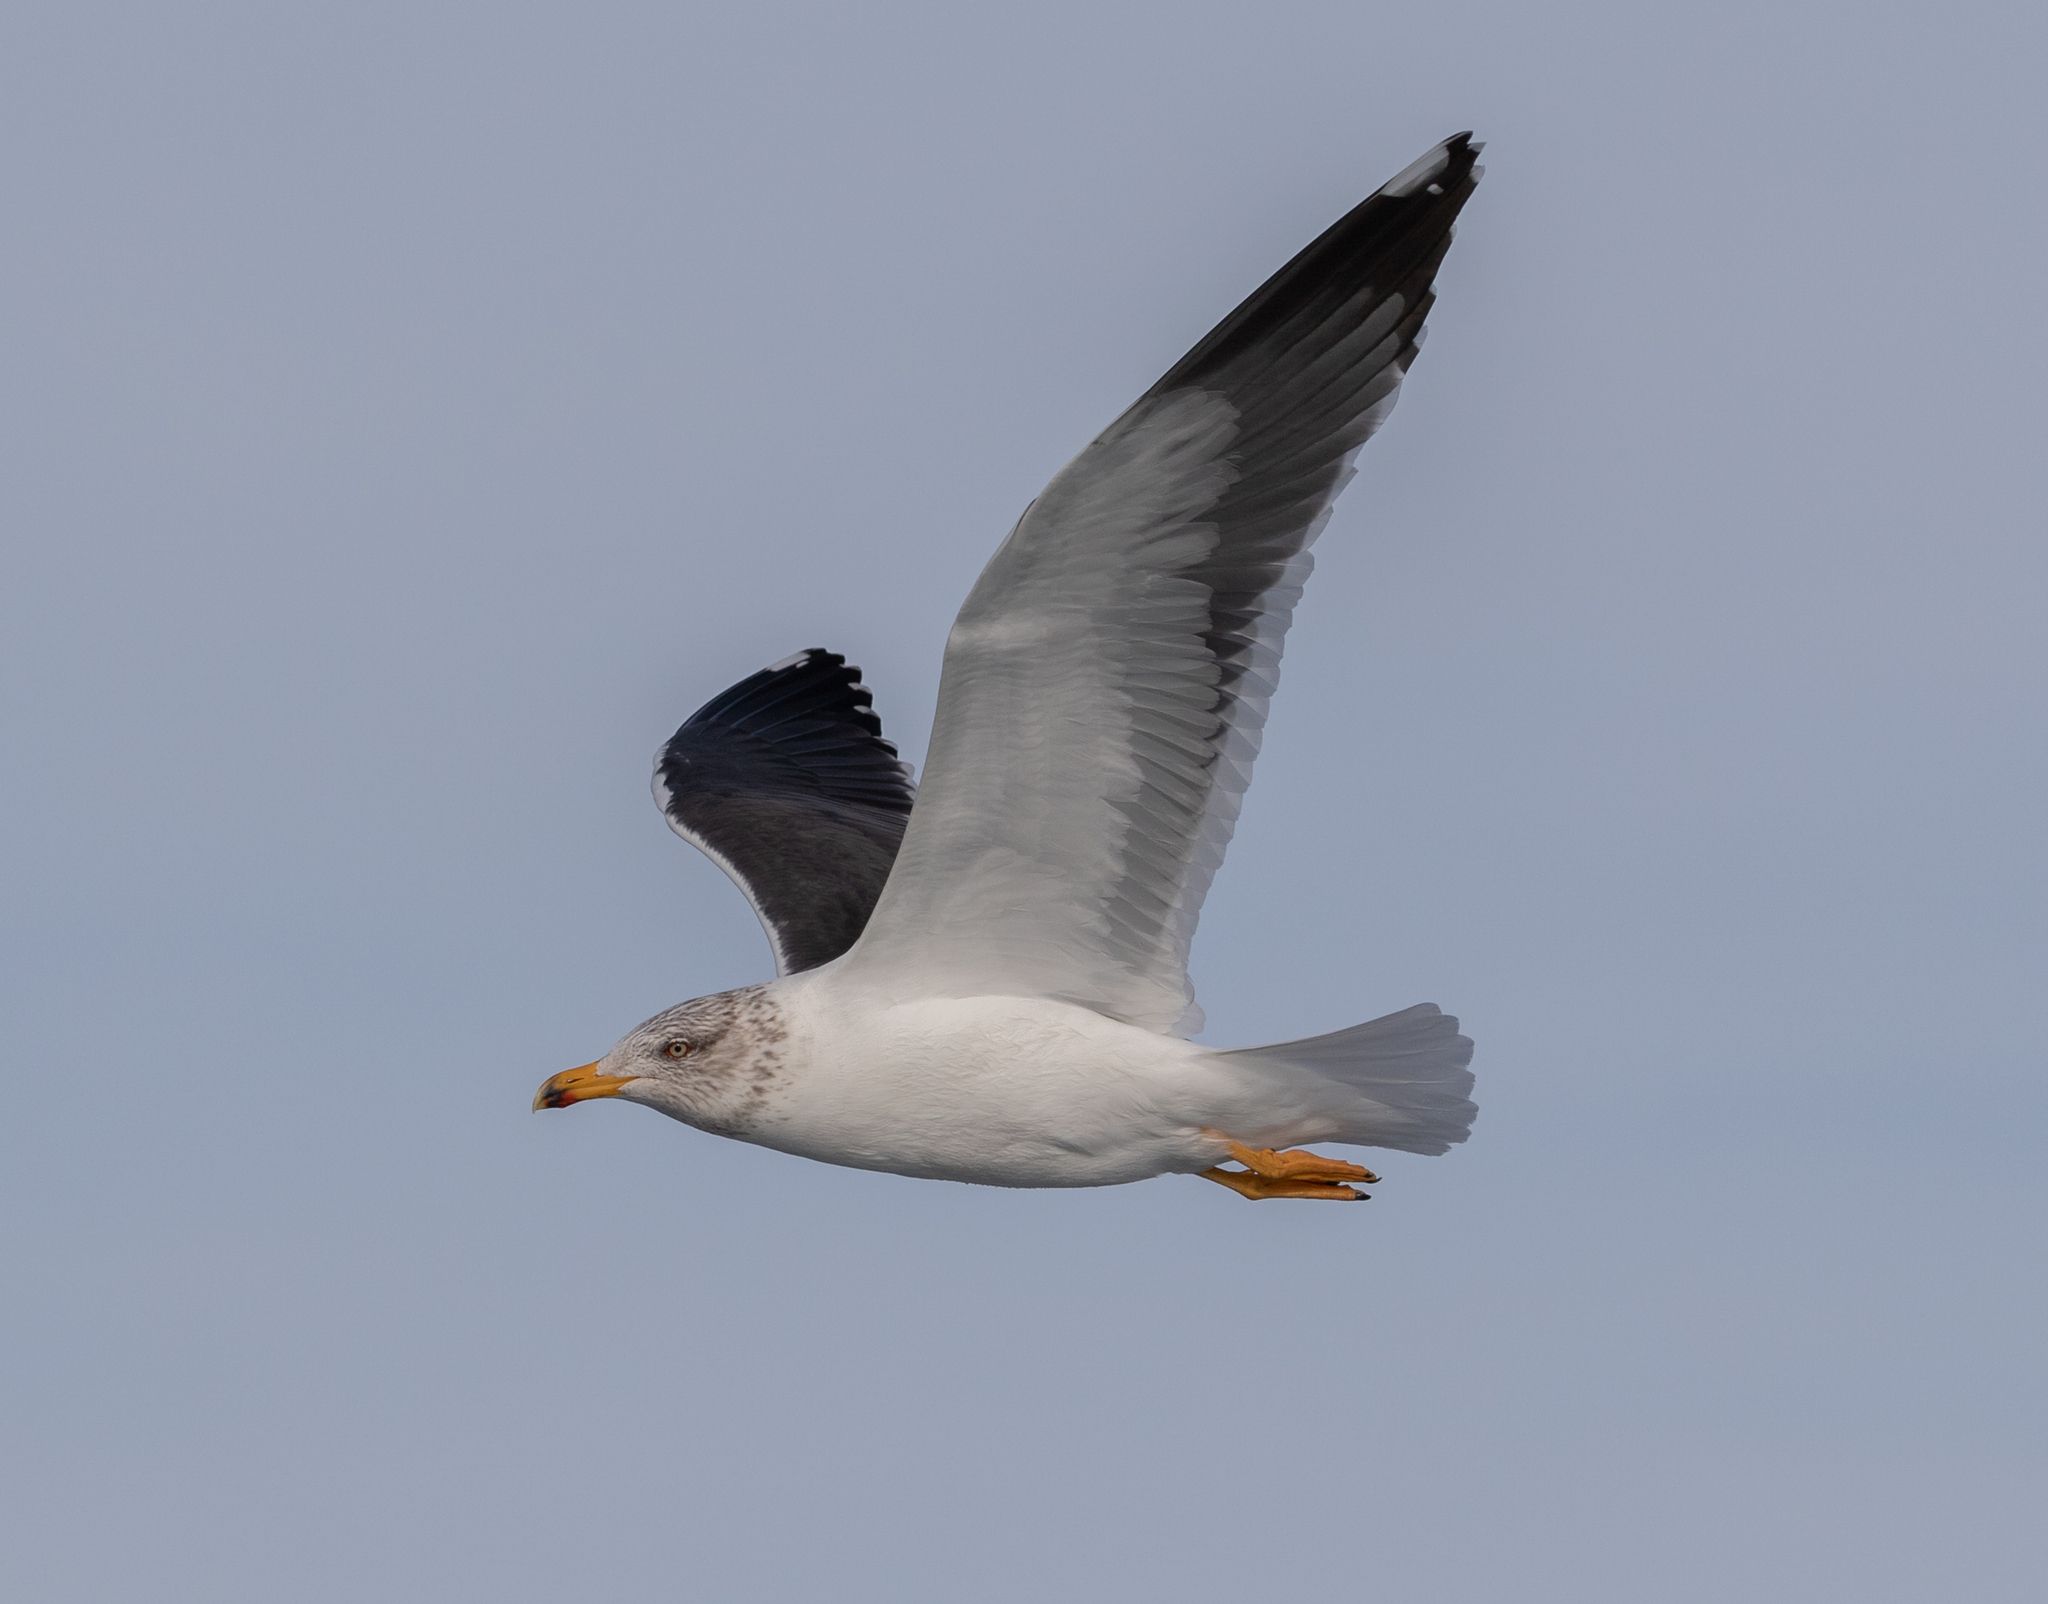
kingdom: Animalia
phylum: Chordata
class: Aves
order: Charadriiformes
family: Laridae
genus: Larus
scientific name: Larus fuscus
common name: Lesser black-backed gull
